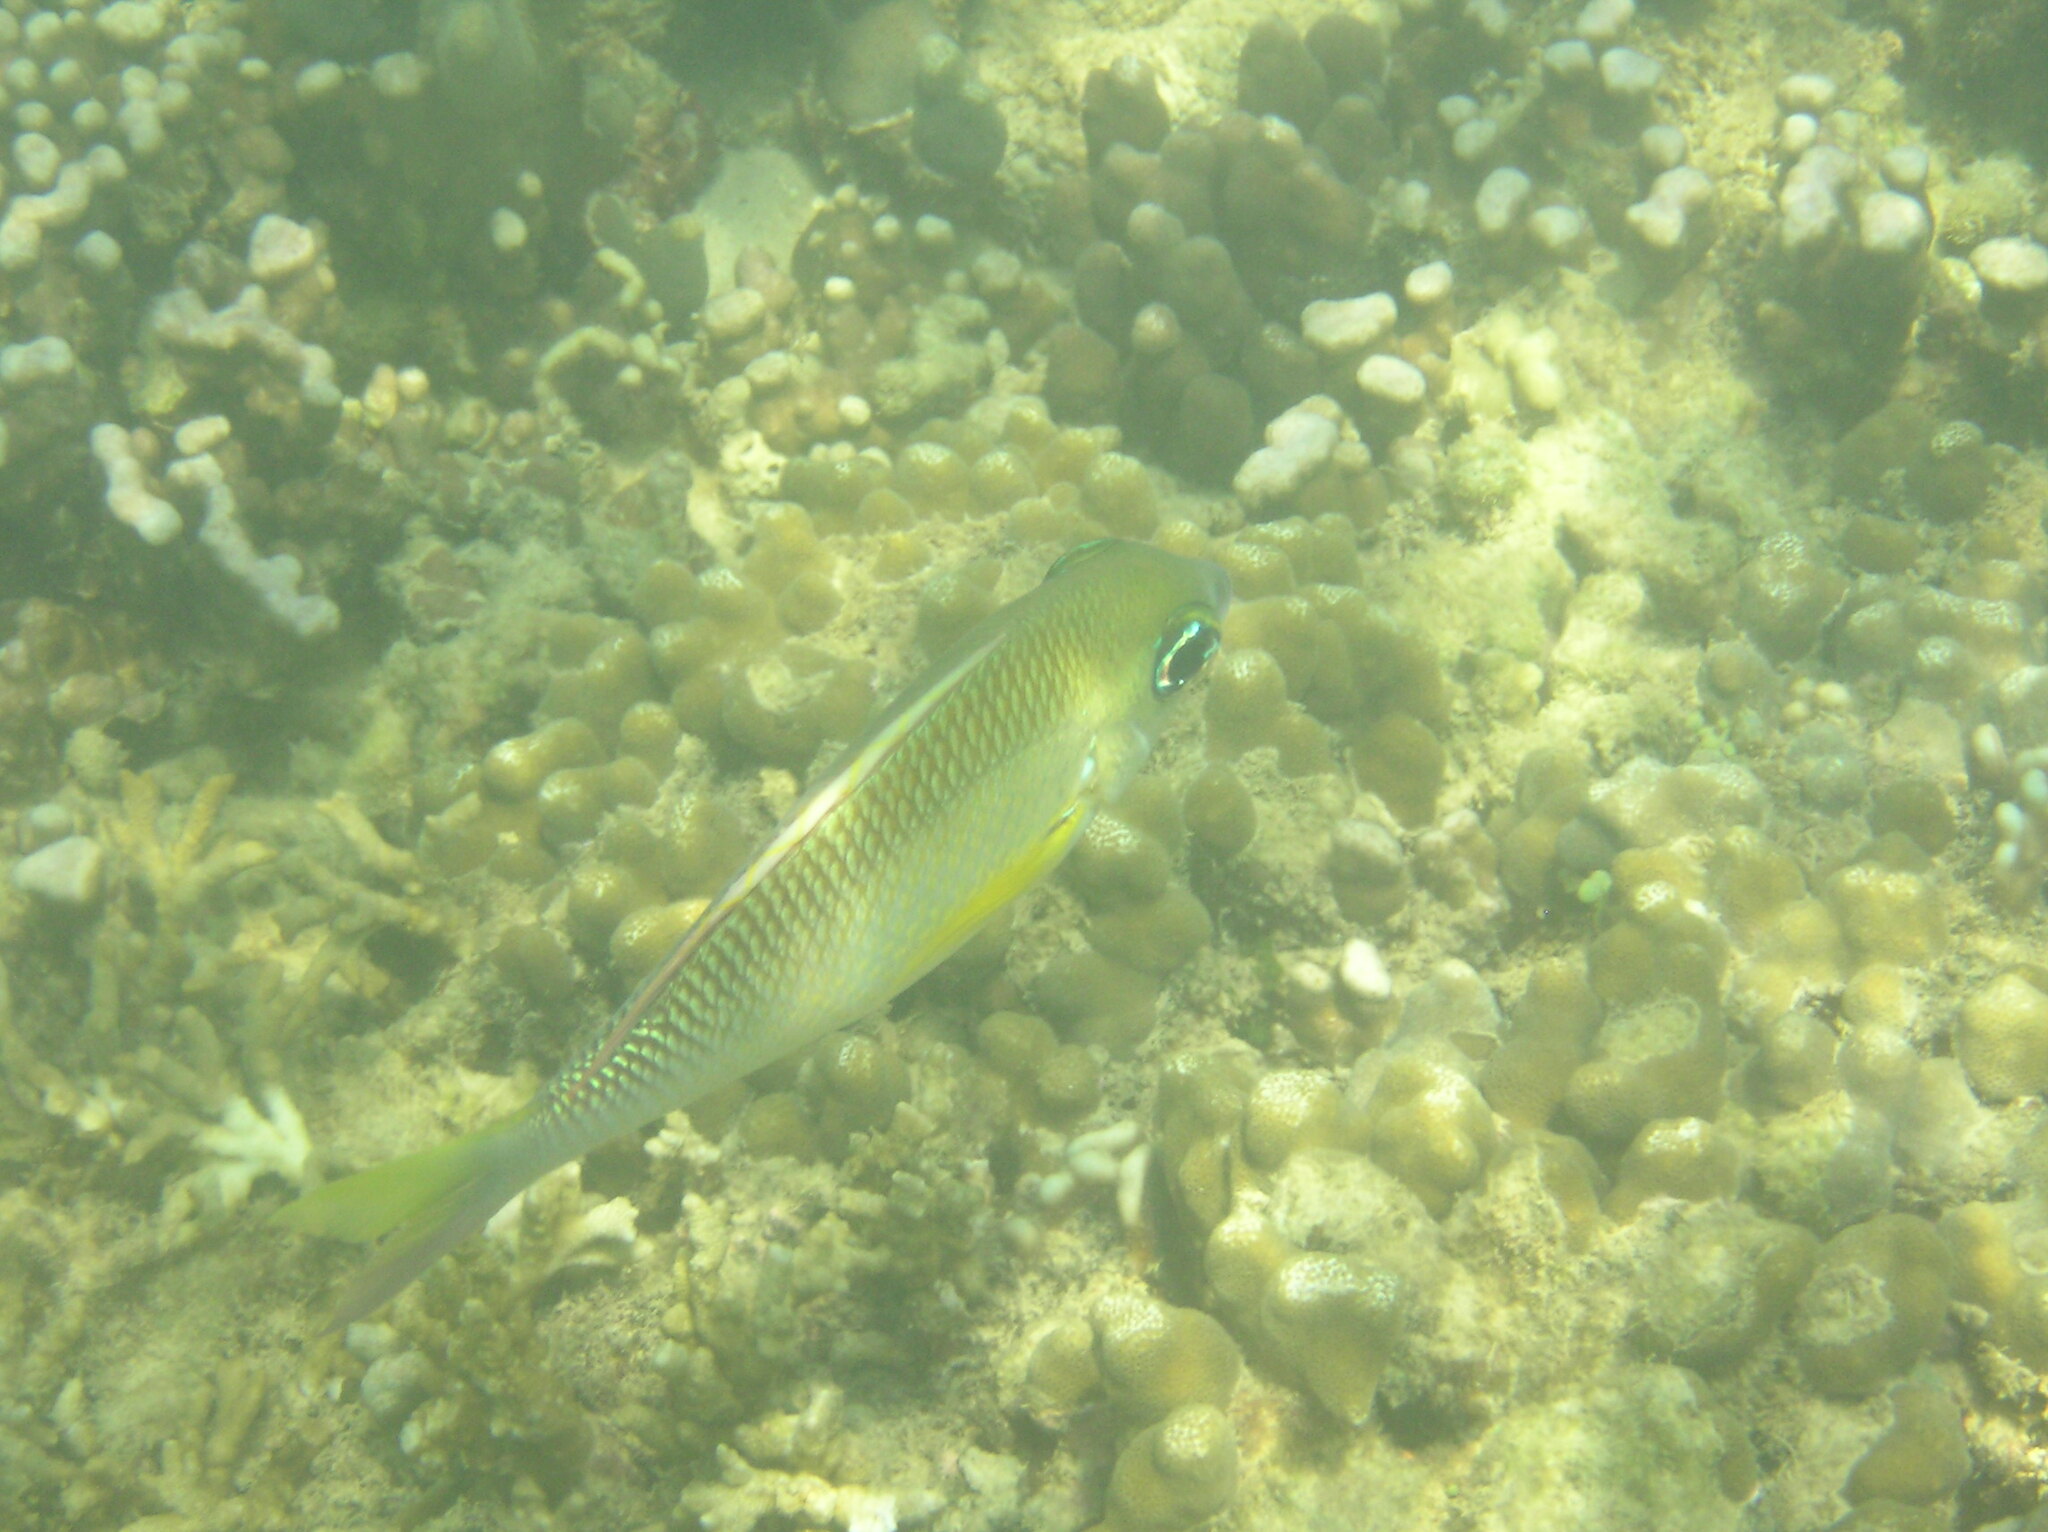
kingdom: Animalia
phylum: Chordata
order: Perciformes
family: Nemipteridae
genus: Scolopsis
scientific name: Scolopsis margaritifera
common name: Pearly monocle bream
